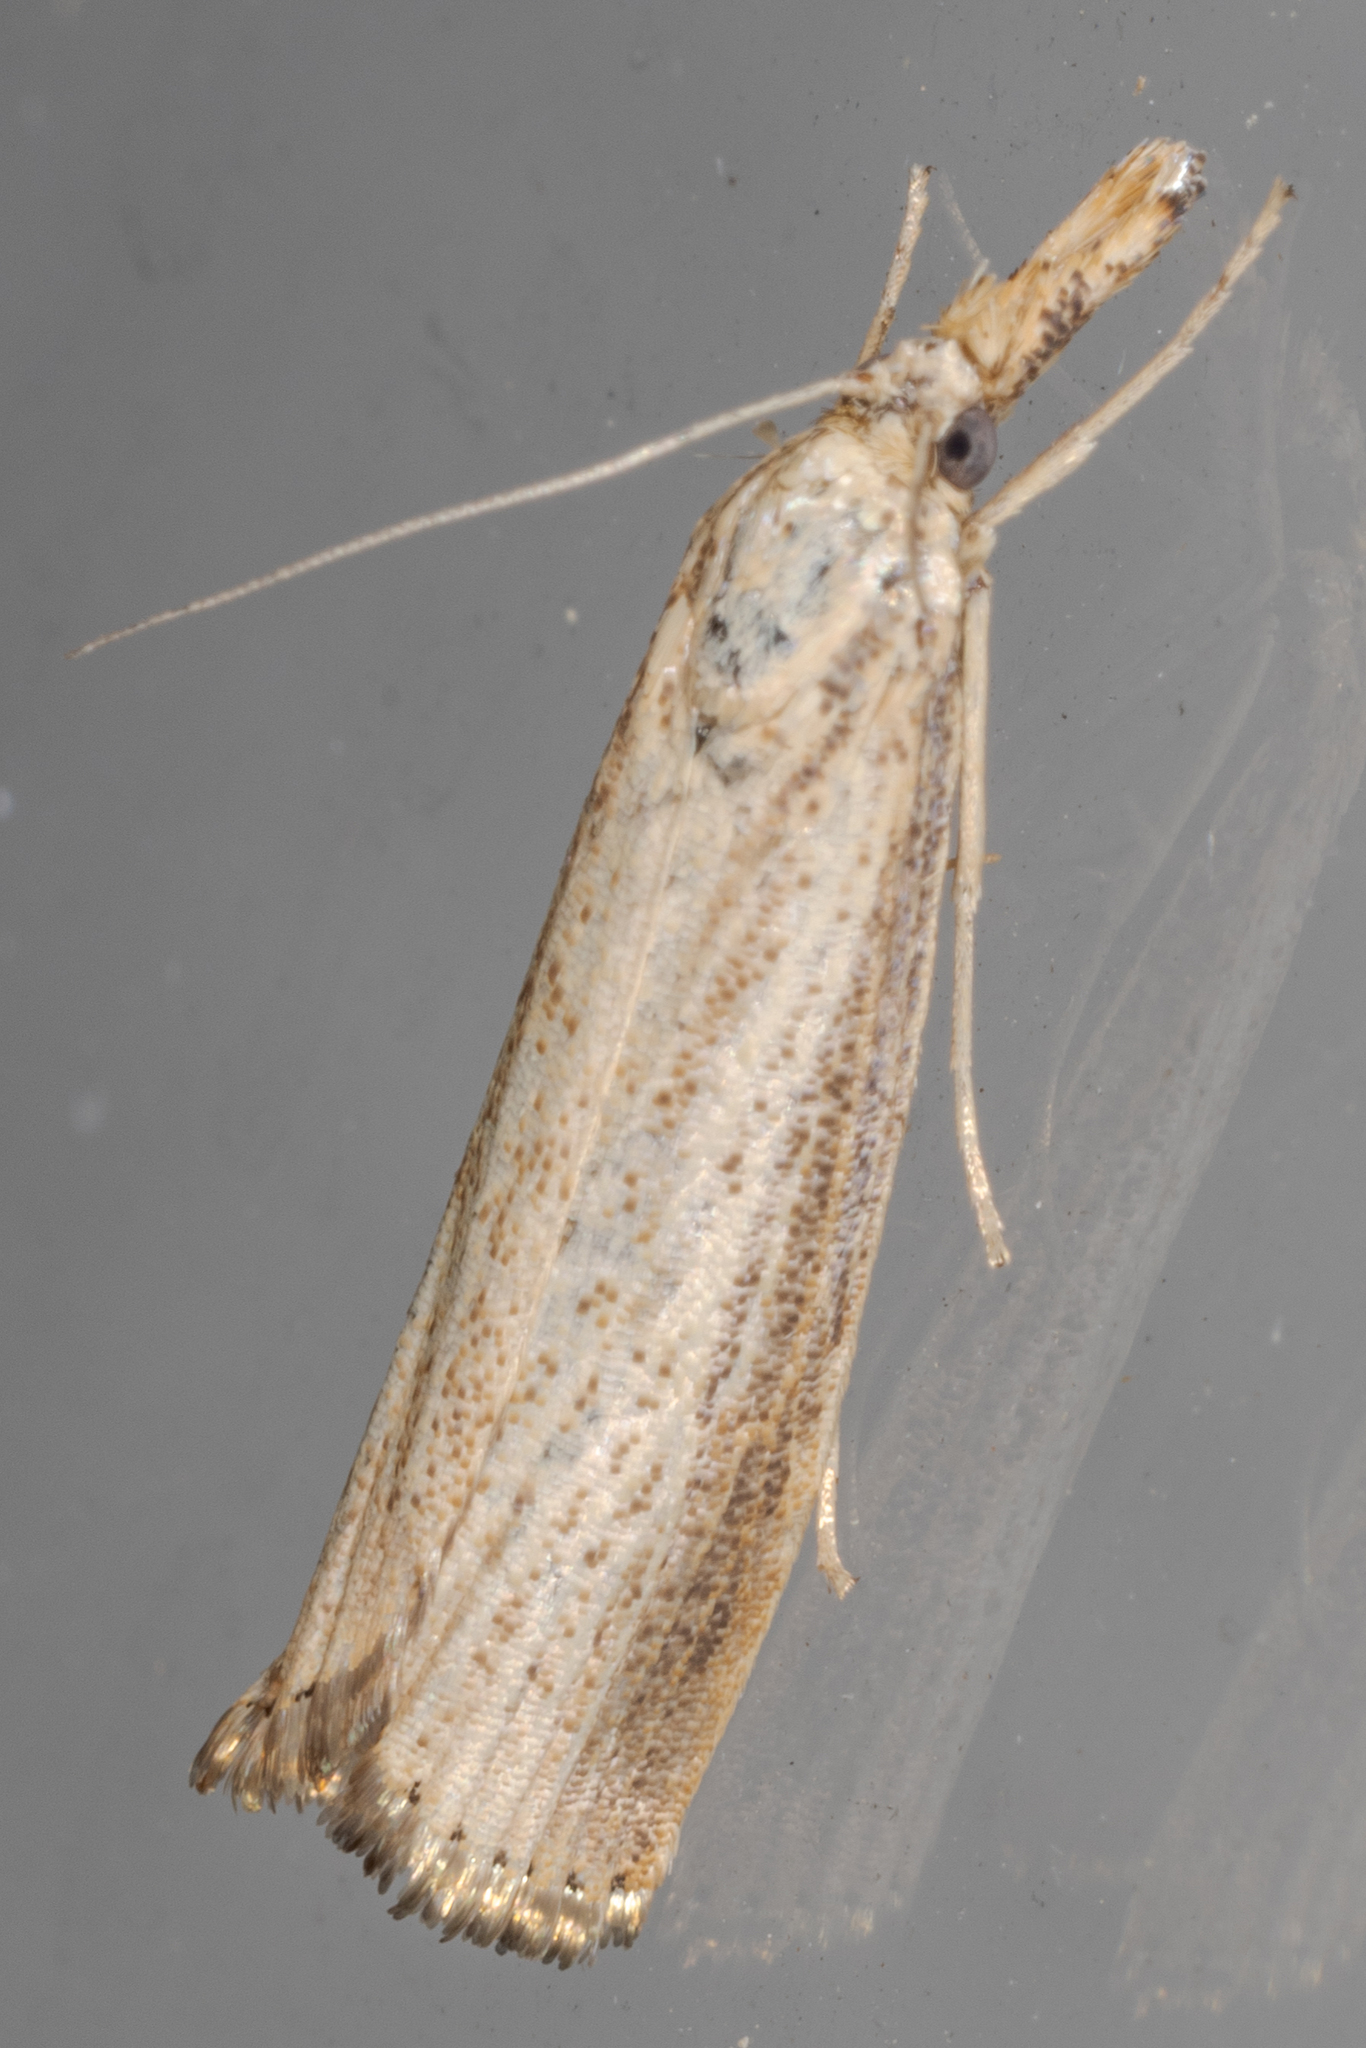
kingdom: Animalia
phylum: Arthropoda
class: Insecta
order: Lepidoptera
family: Crambidae
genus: Agriphila
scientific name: Agriphila vulgivagellus
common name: Vagabond crambus moth
